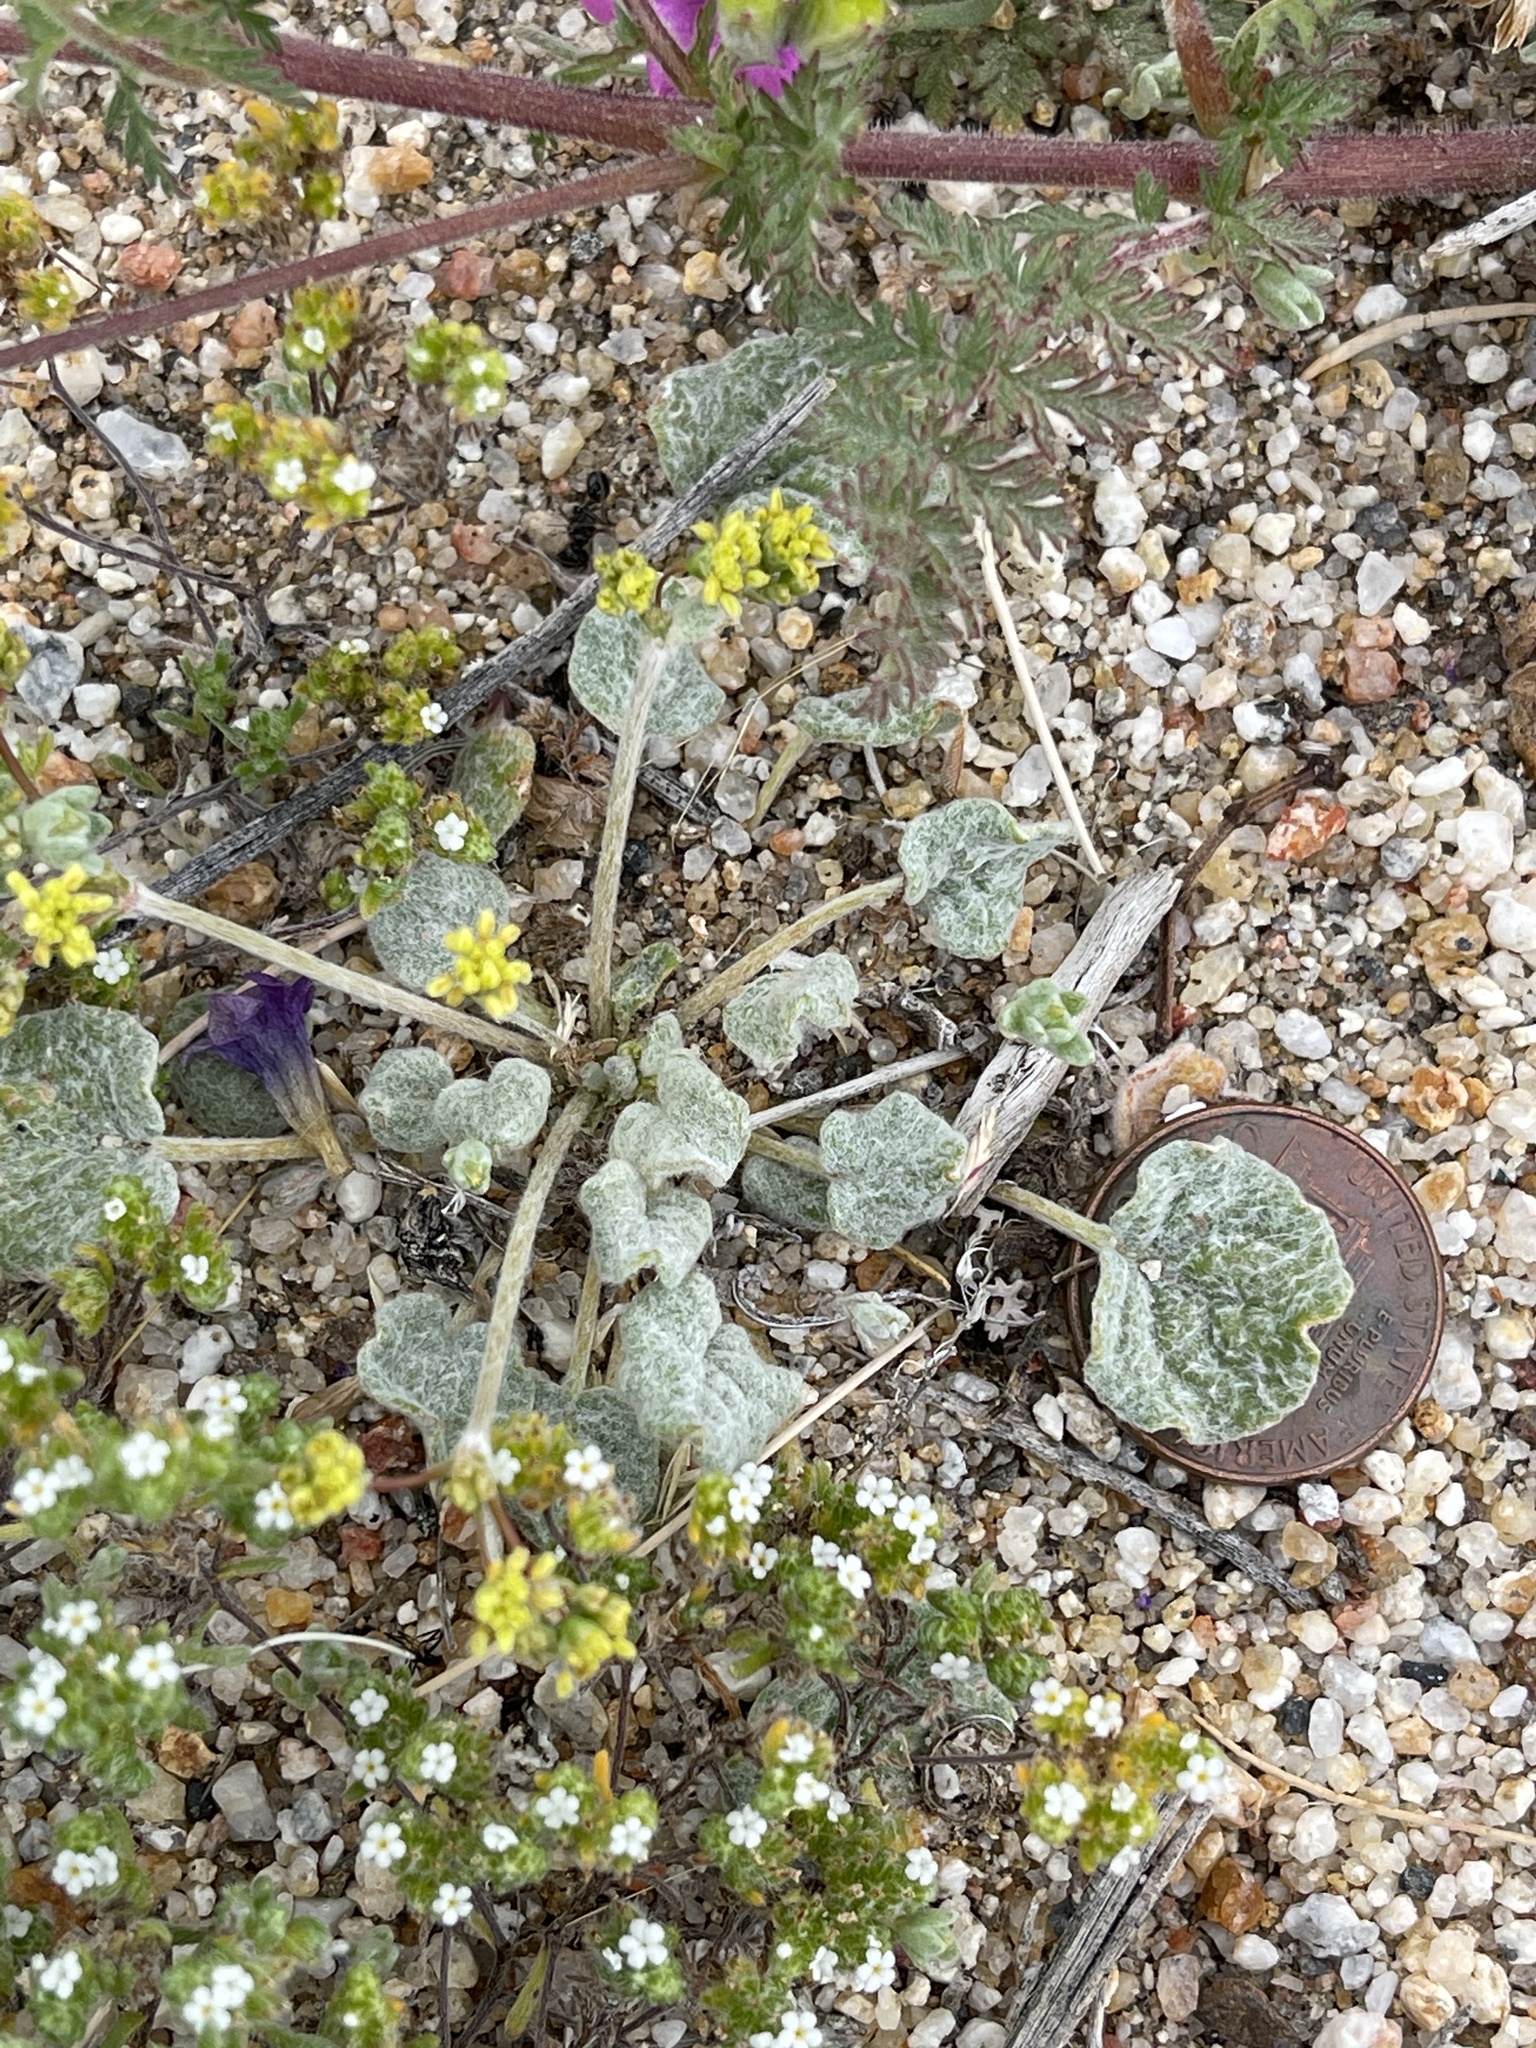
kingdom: Plantae
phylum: Tracheophyta
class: Magnoliopsida
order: Caryophyllales
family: Polygonaceae
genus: Eriogonum
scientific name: Eriogonum reniforme
